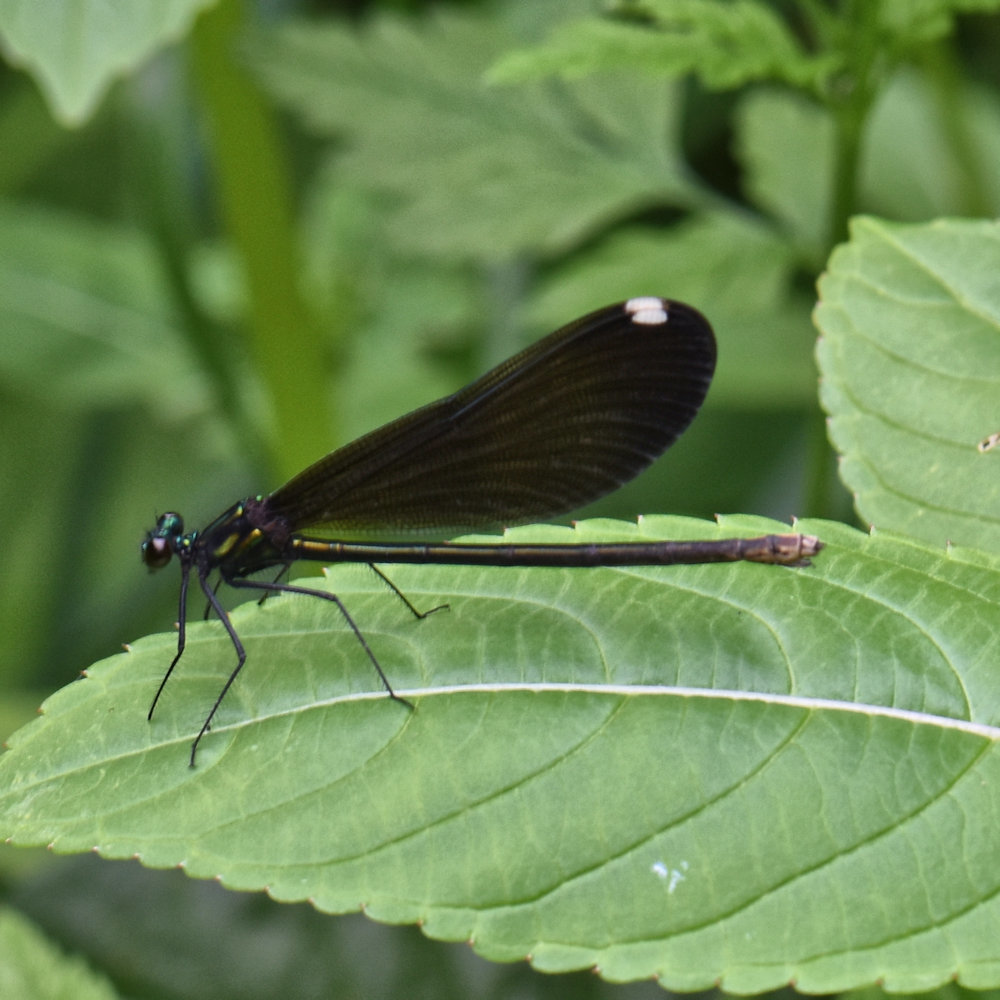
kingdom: Animalia
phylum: Arthropoda
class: Insecta
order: Odonata
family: Calopterygidae
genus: Calopteryx
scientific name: Calopteryx maculata
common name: Ebony jewelwing
